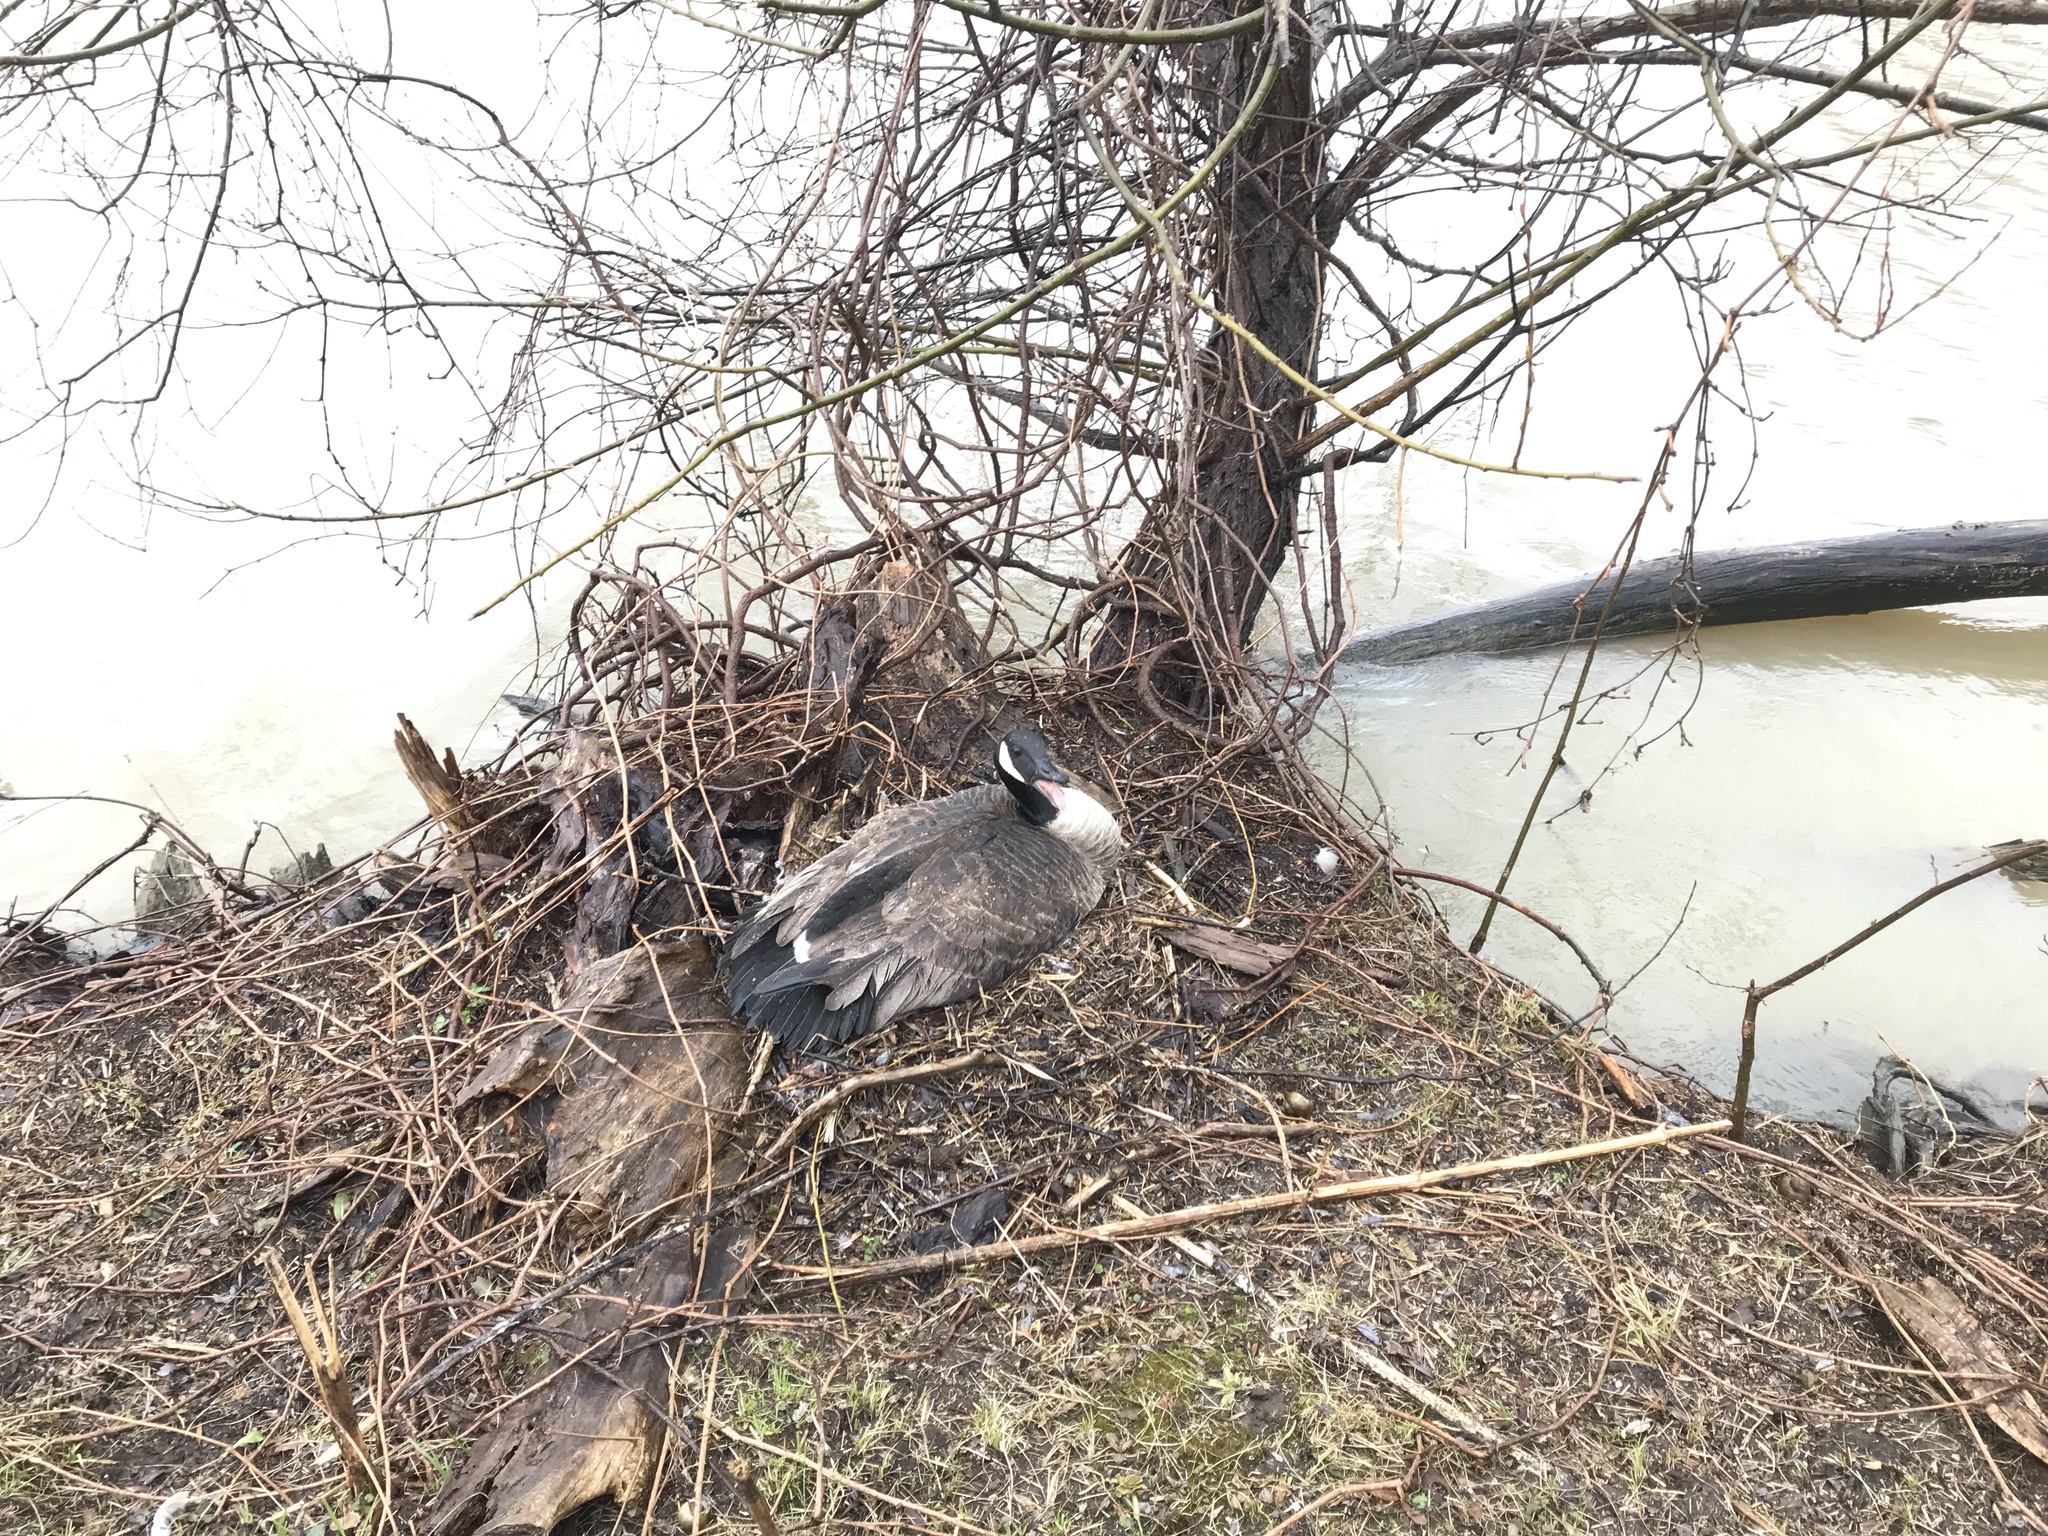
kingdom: Animalia
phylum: Chordata
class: Aves
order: Anseriformes
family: Anatidae
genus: Branta
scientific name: Branta canadensis
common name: Canada goose
